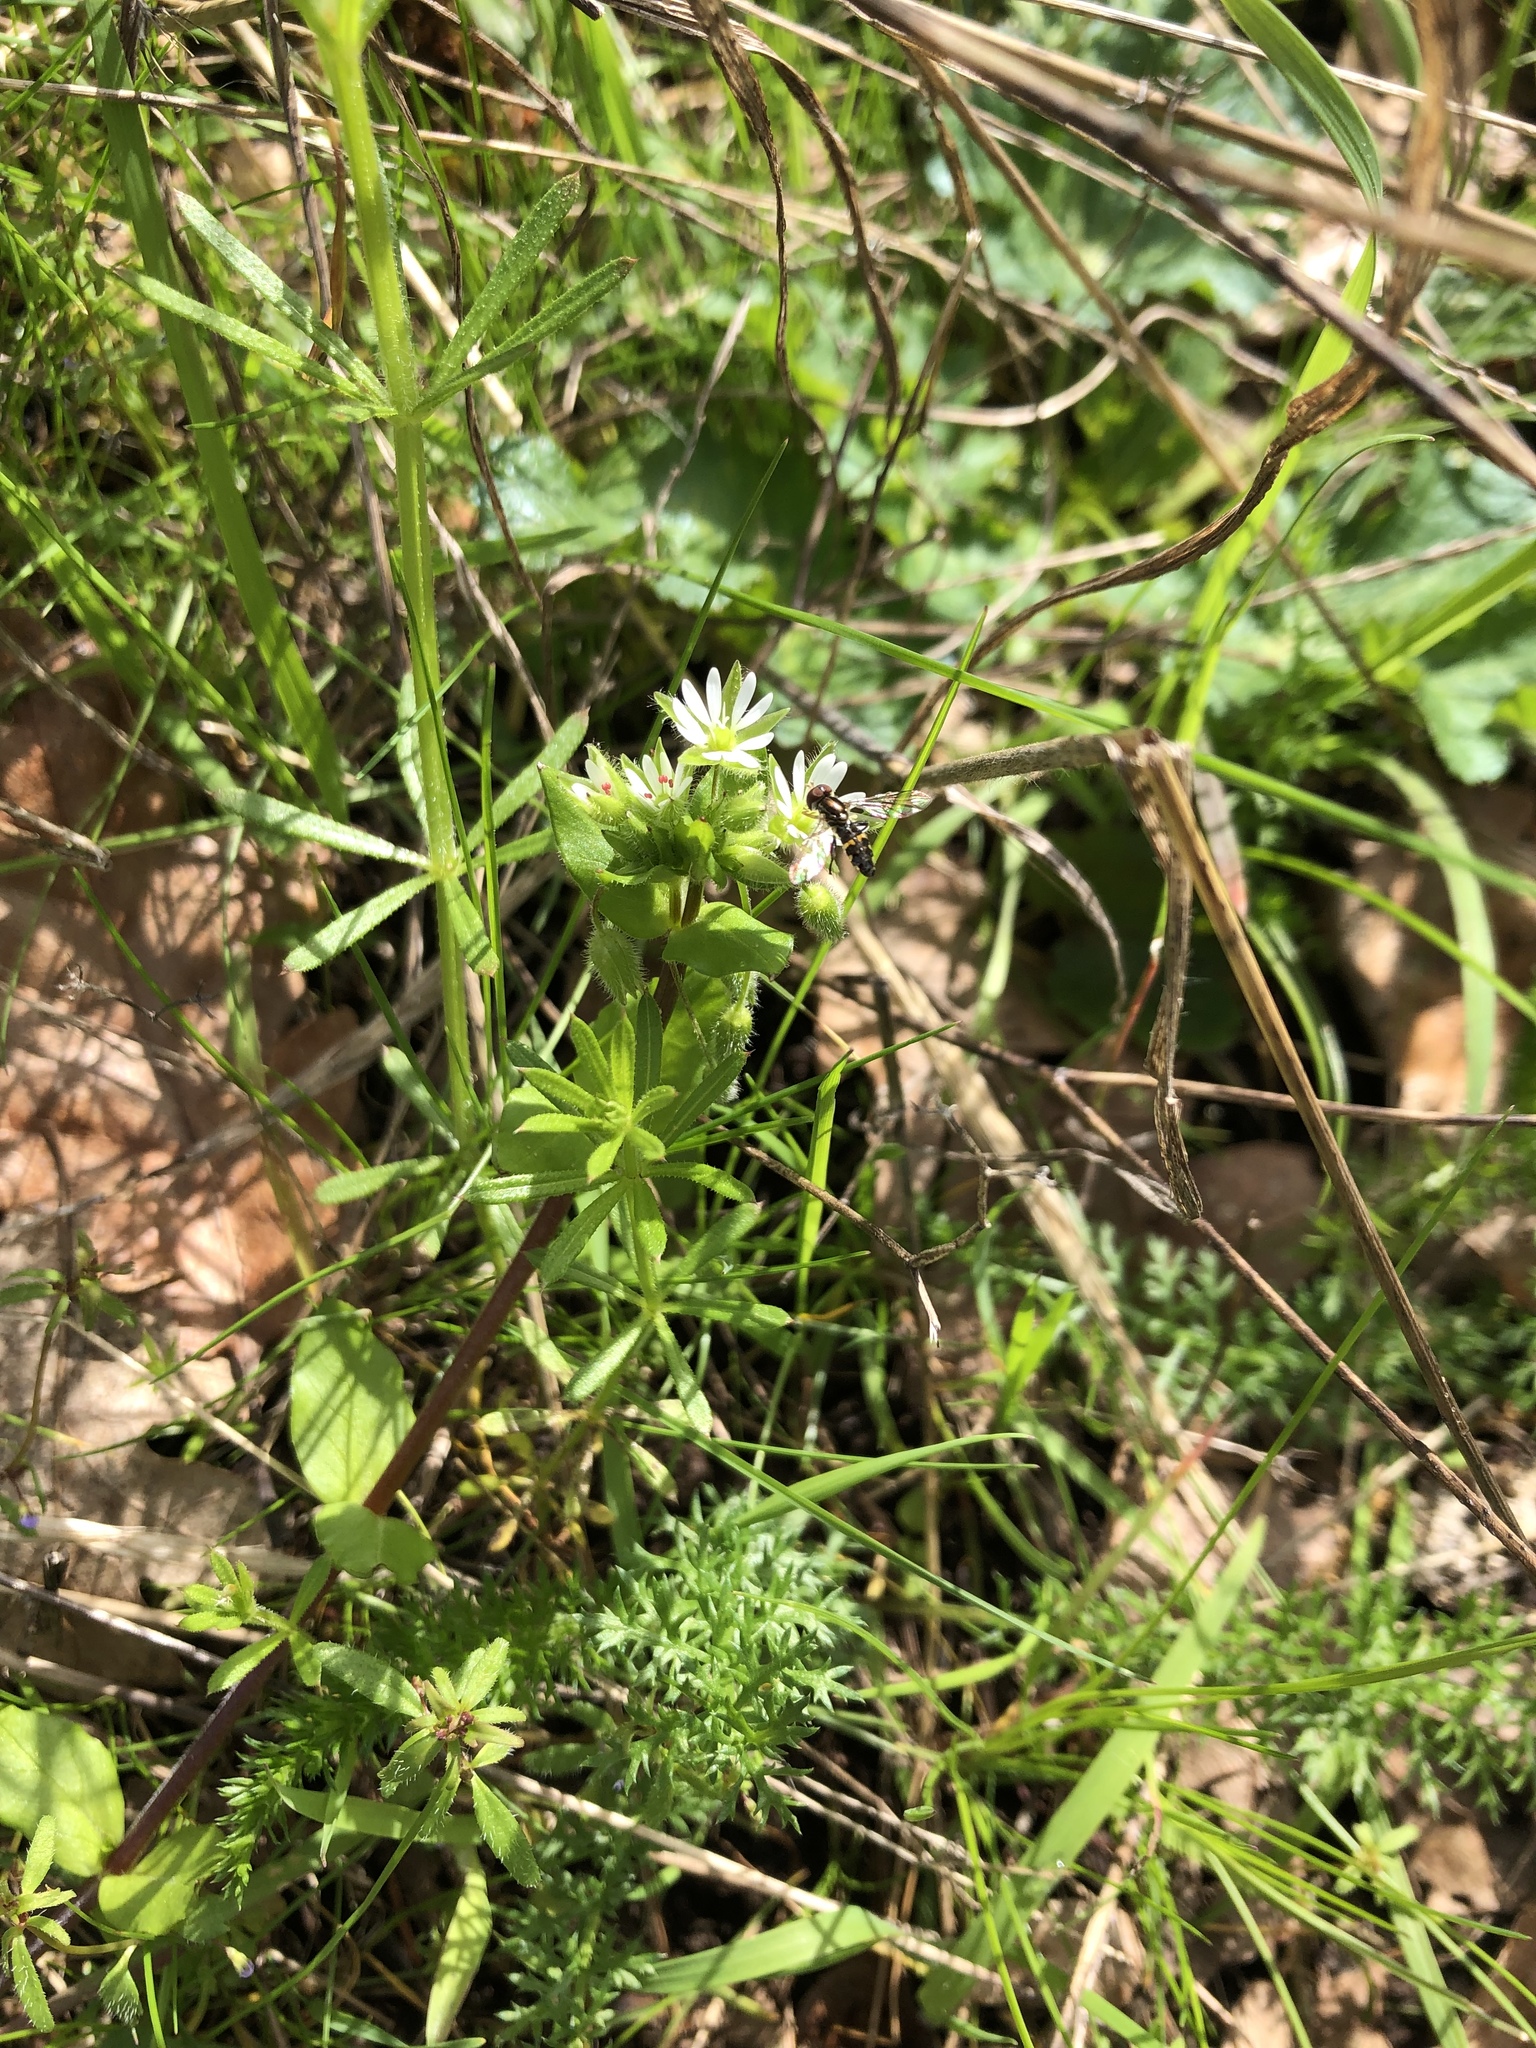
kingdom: Plantae
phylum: Tracheophyta
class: Magnoliopsida
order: Caryophyllales
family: Caryophyllaceae
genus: Stellaria
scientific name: Stellaria media
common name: Common chickweed
